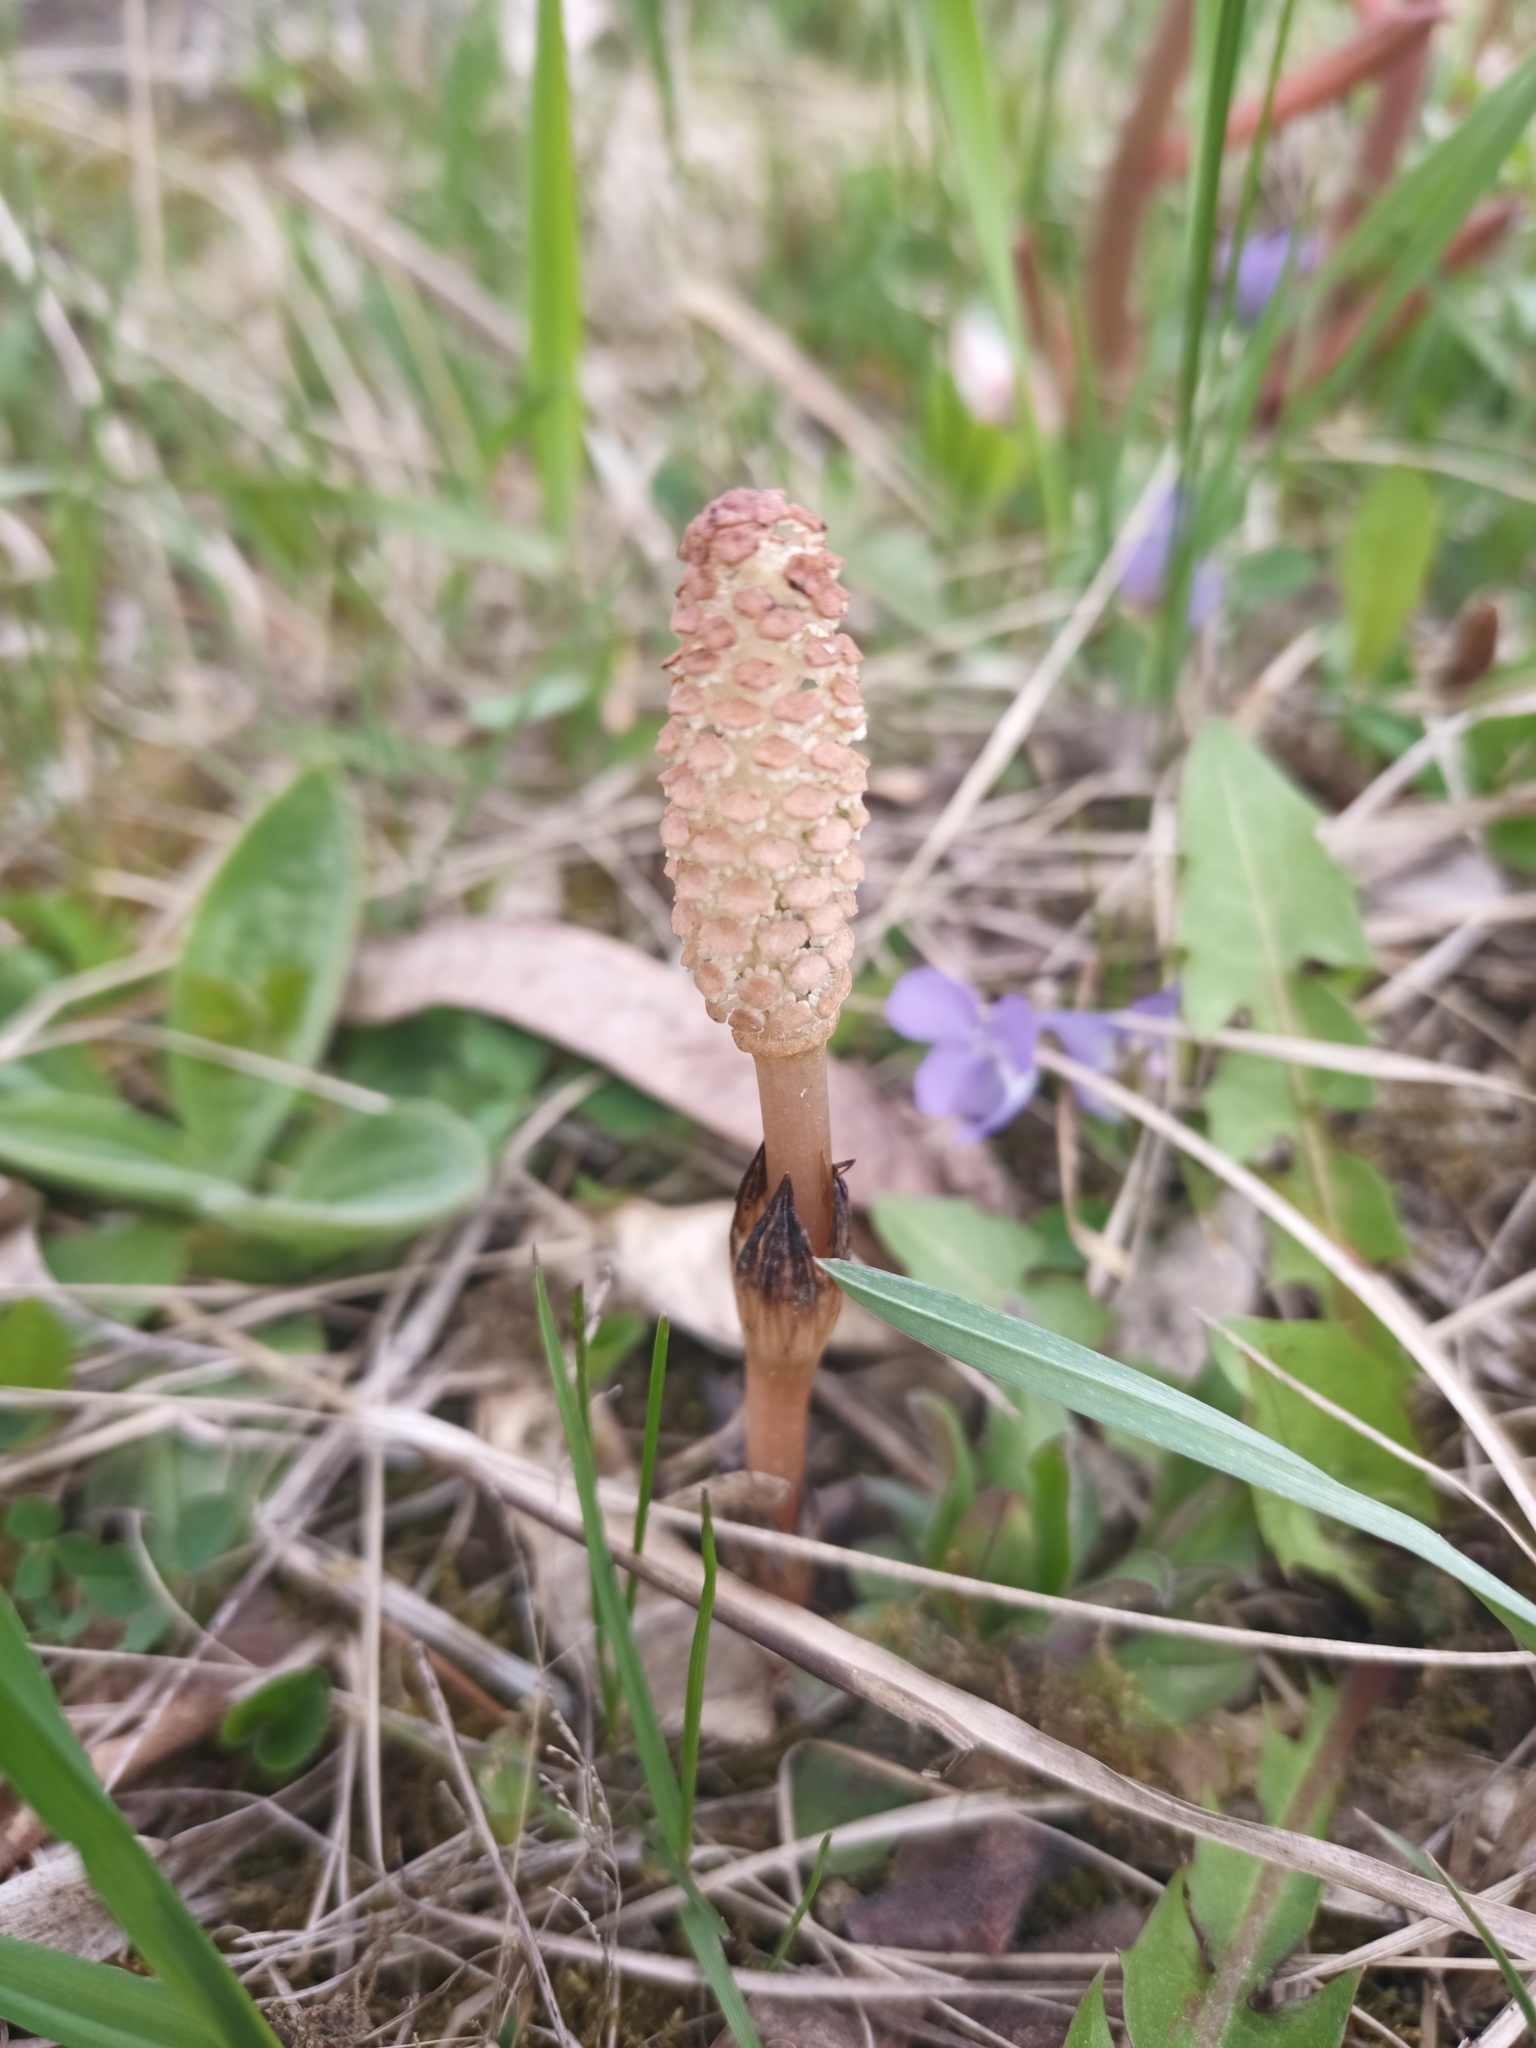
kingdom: Plantae
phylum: Tracheophyta
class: Polypodiopsida
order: Equisetales
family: Equisetaceae
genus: Equisetum
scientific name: Equisetum arvense
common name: Field horsetail
